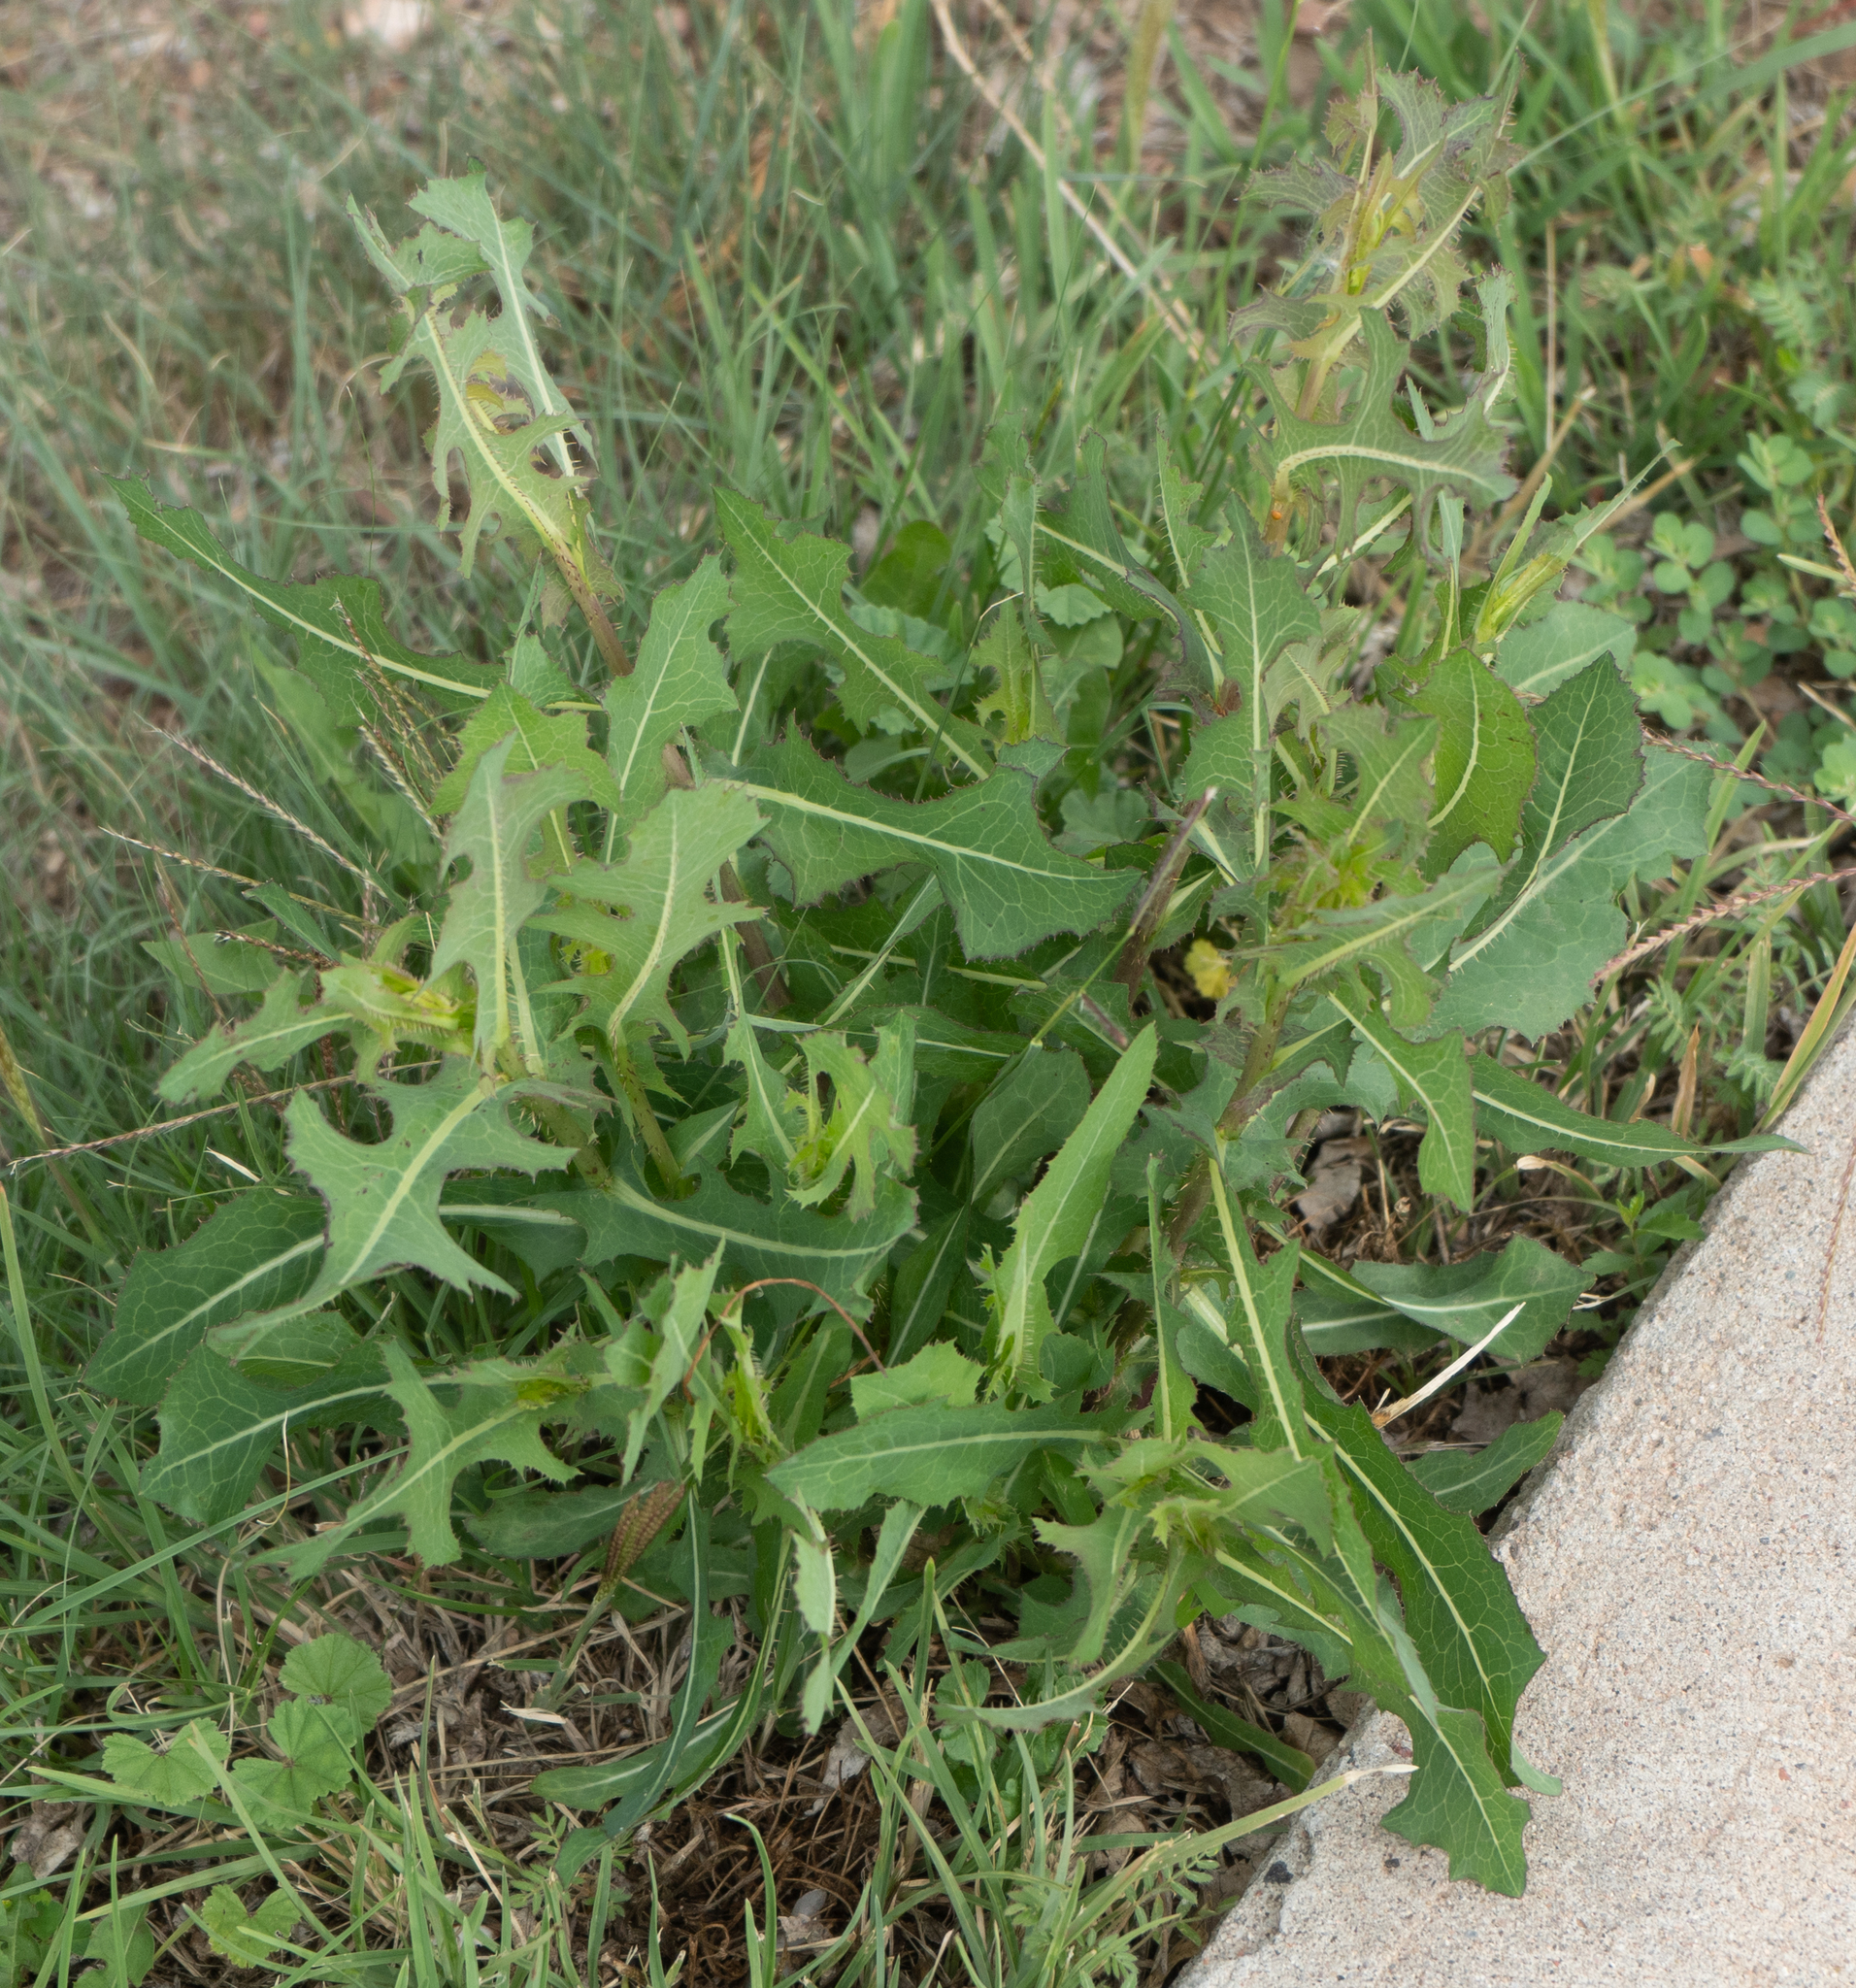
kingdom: Plantae
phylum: Tracheophyta
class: Magnoliopsida
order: Asterales
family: Asteraceae
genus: Lactuca
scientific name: Lactuca serriola
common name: Prickly lettuce
